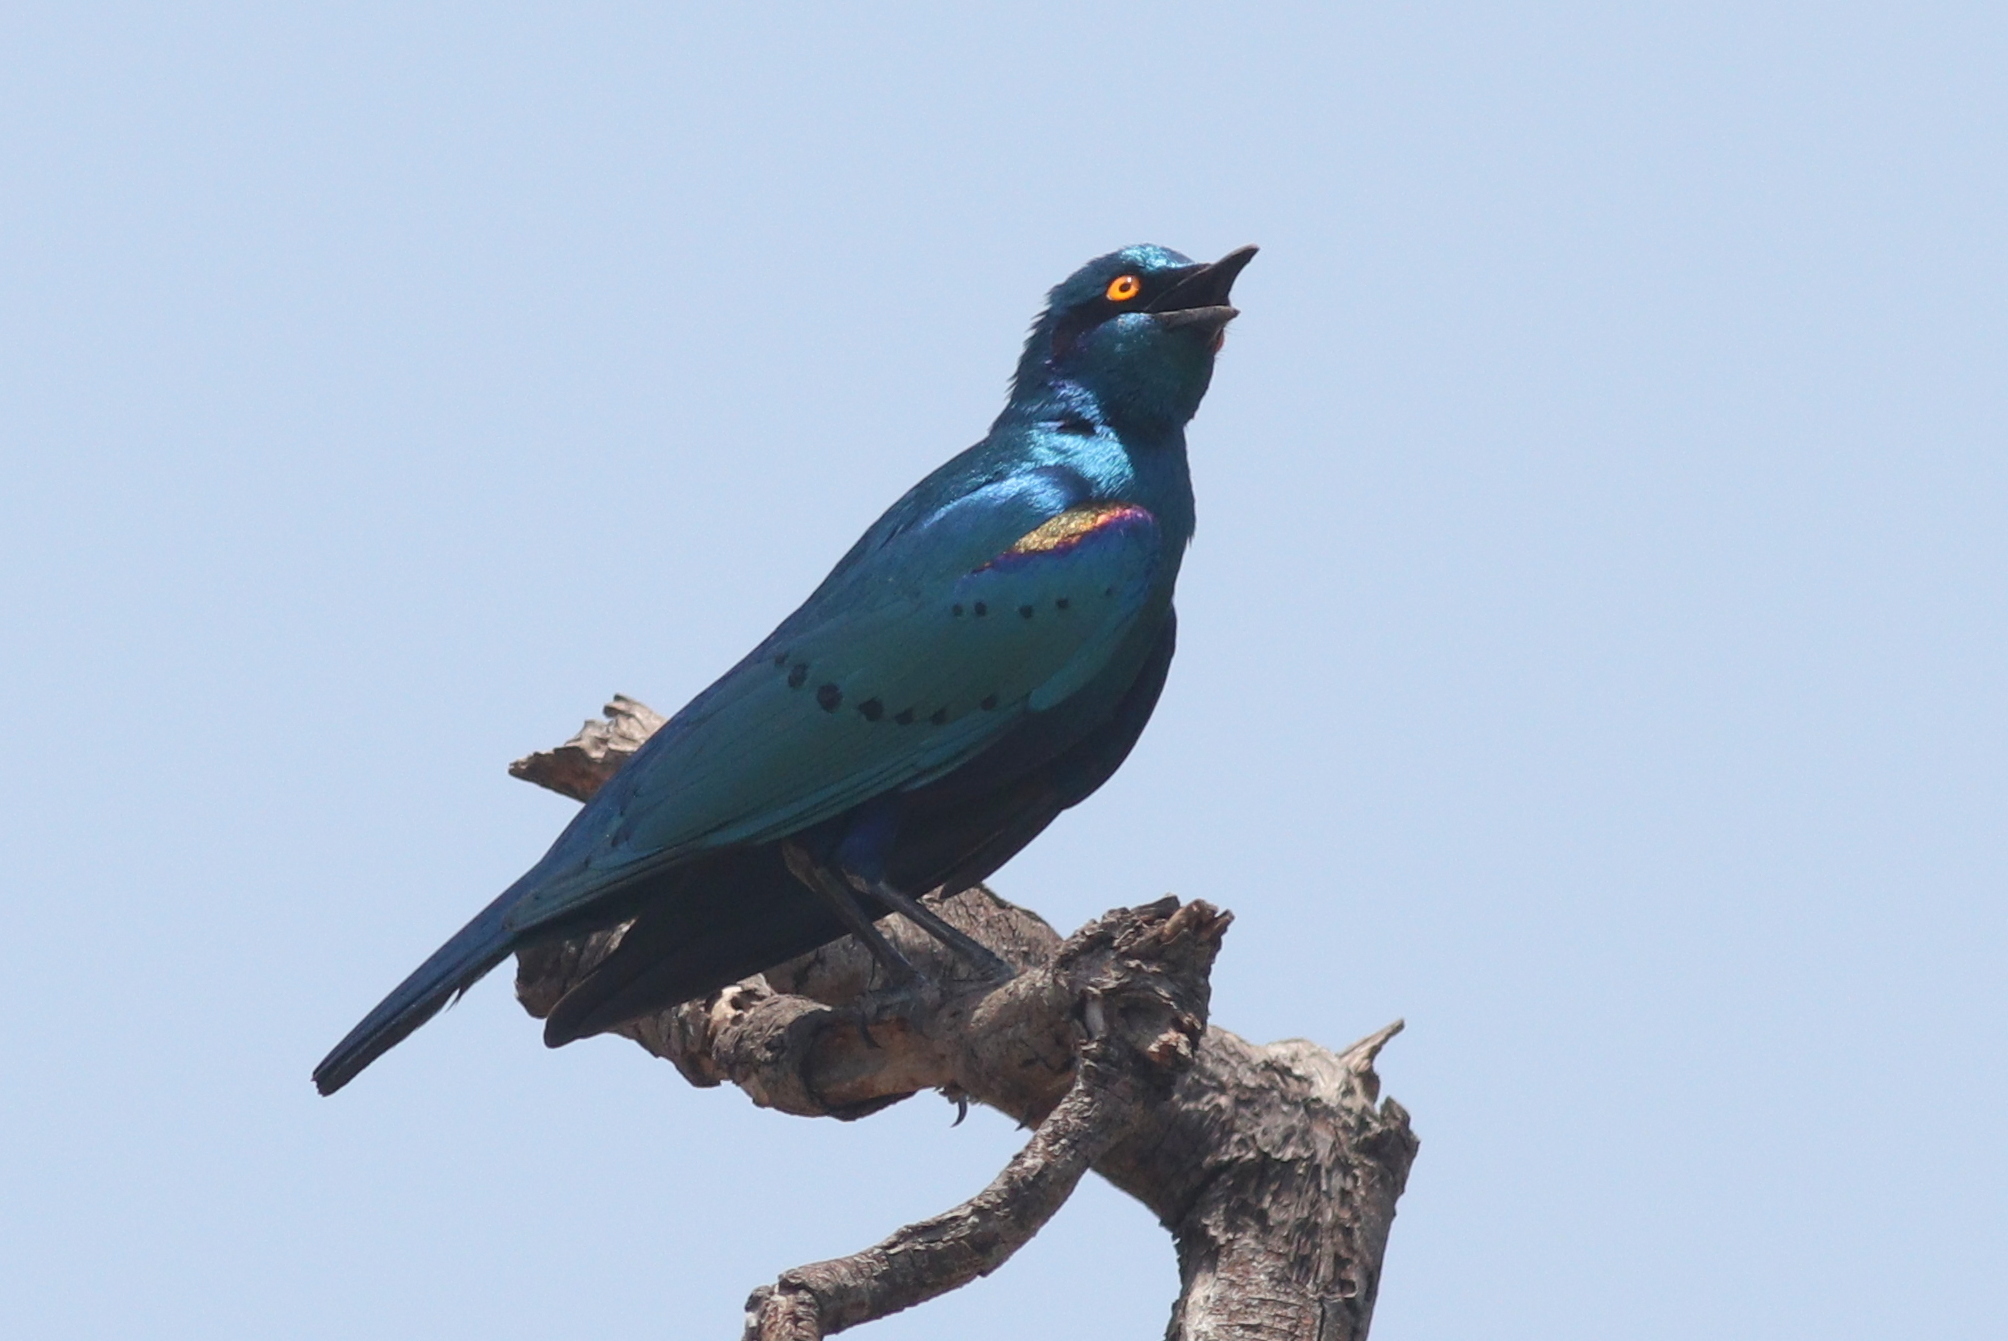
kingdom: Animalia
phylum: Chordata
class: Aves
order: Passeriformes
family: Sturnidae
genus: Lamprotornis
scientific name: Lamprotornis chalybaeus
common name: Greater blue-eared starling
